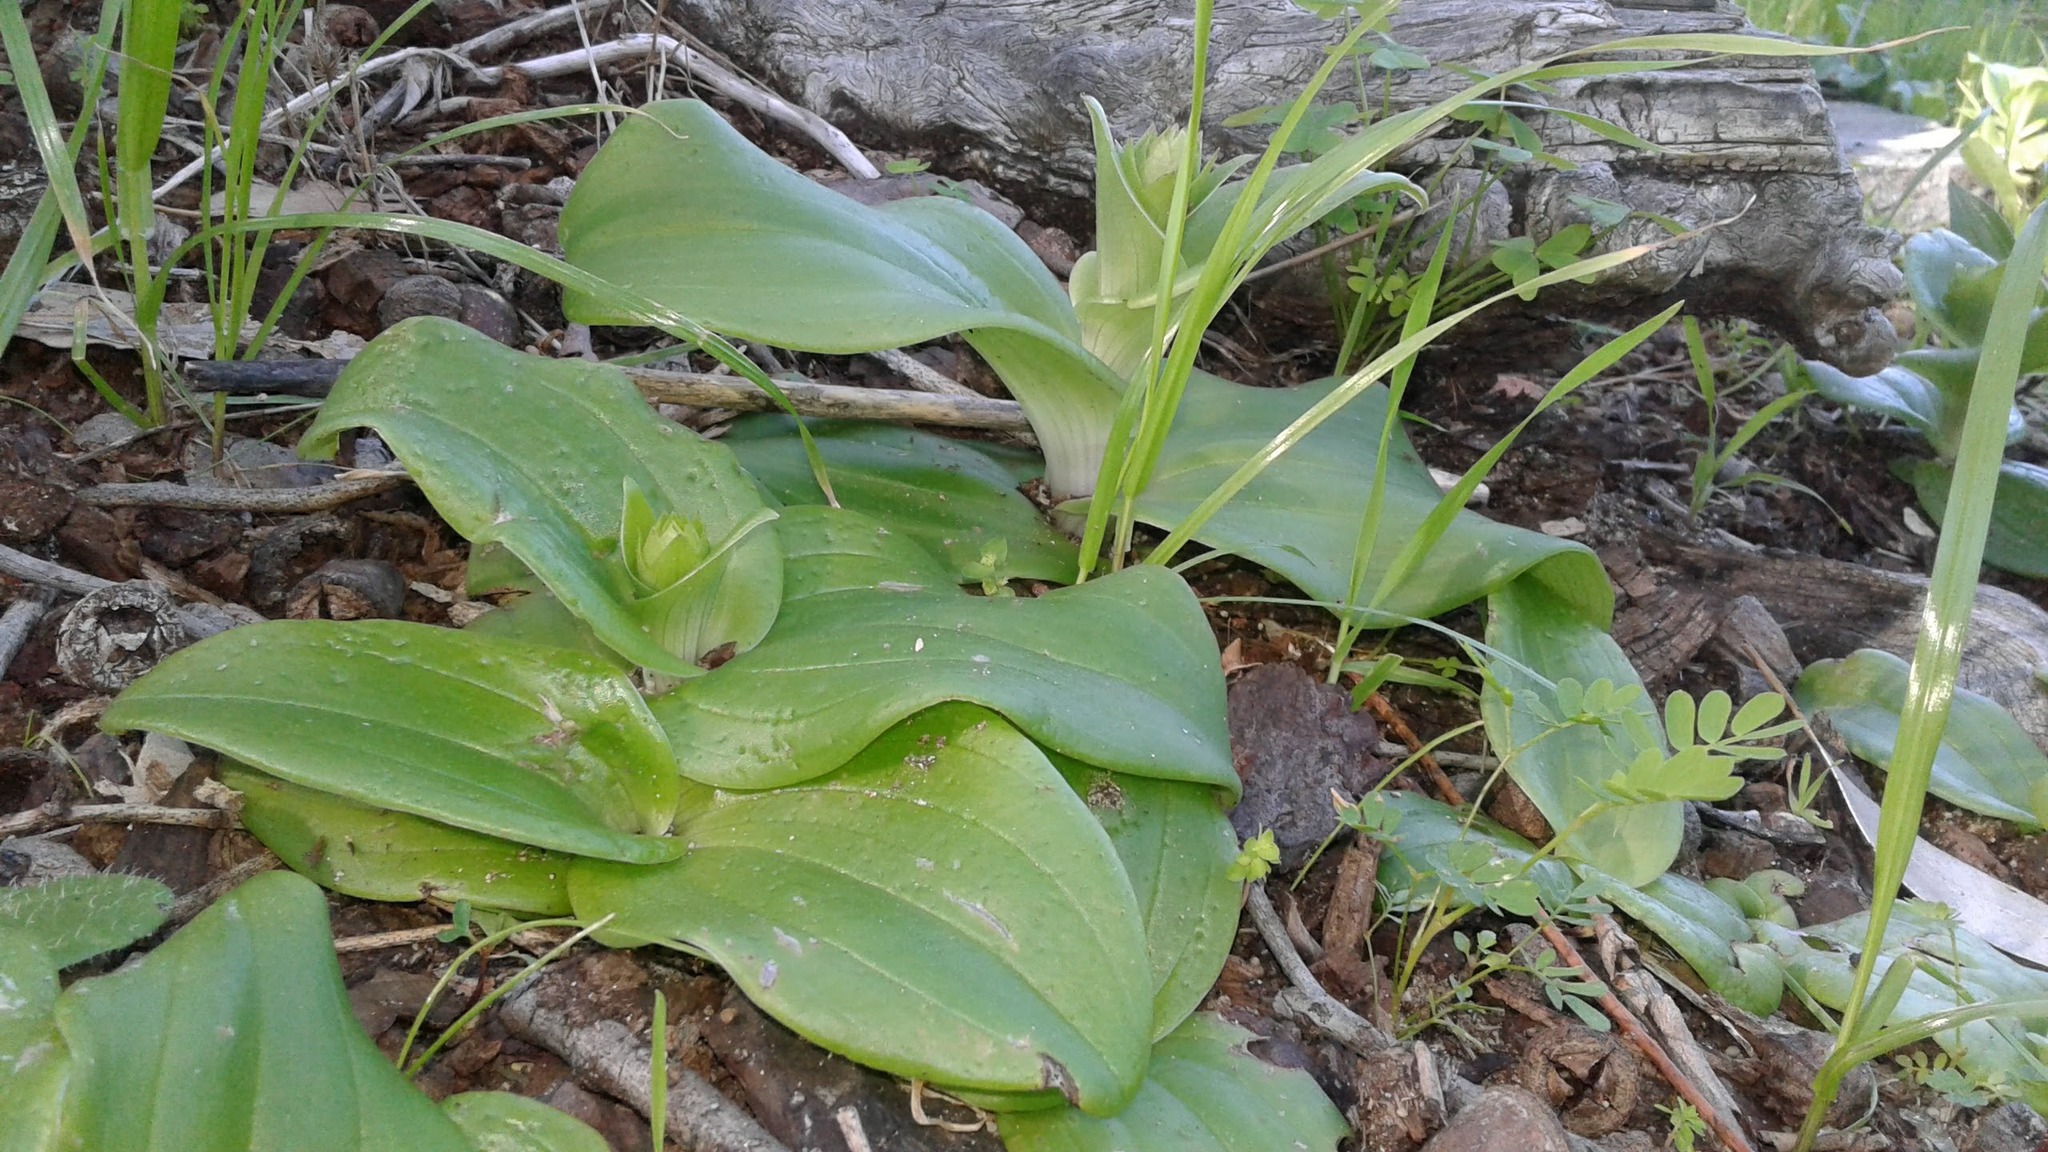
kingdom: Plantae
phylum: Tracheophyta
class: Liliopsida
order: Asparagales
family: Orchidaceae
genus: Satyrium
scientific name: Satyrium odorum
